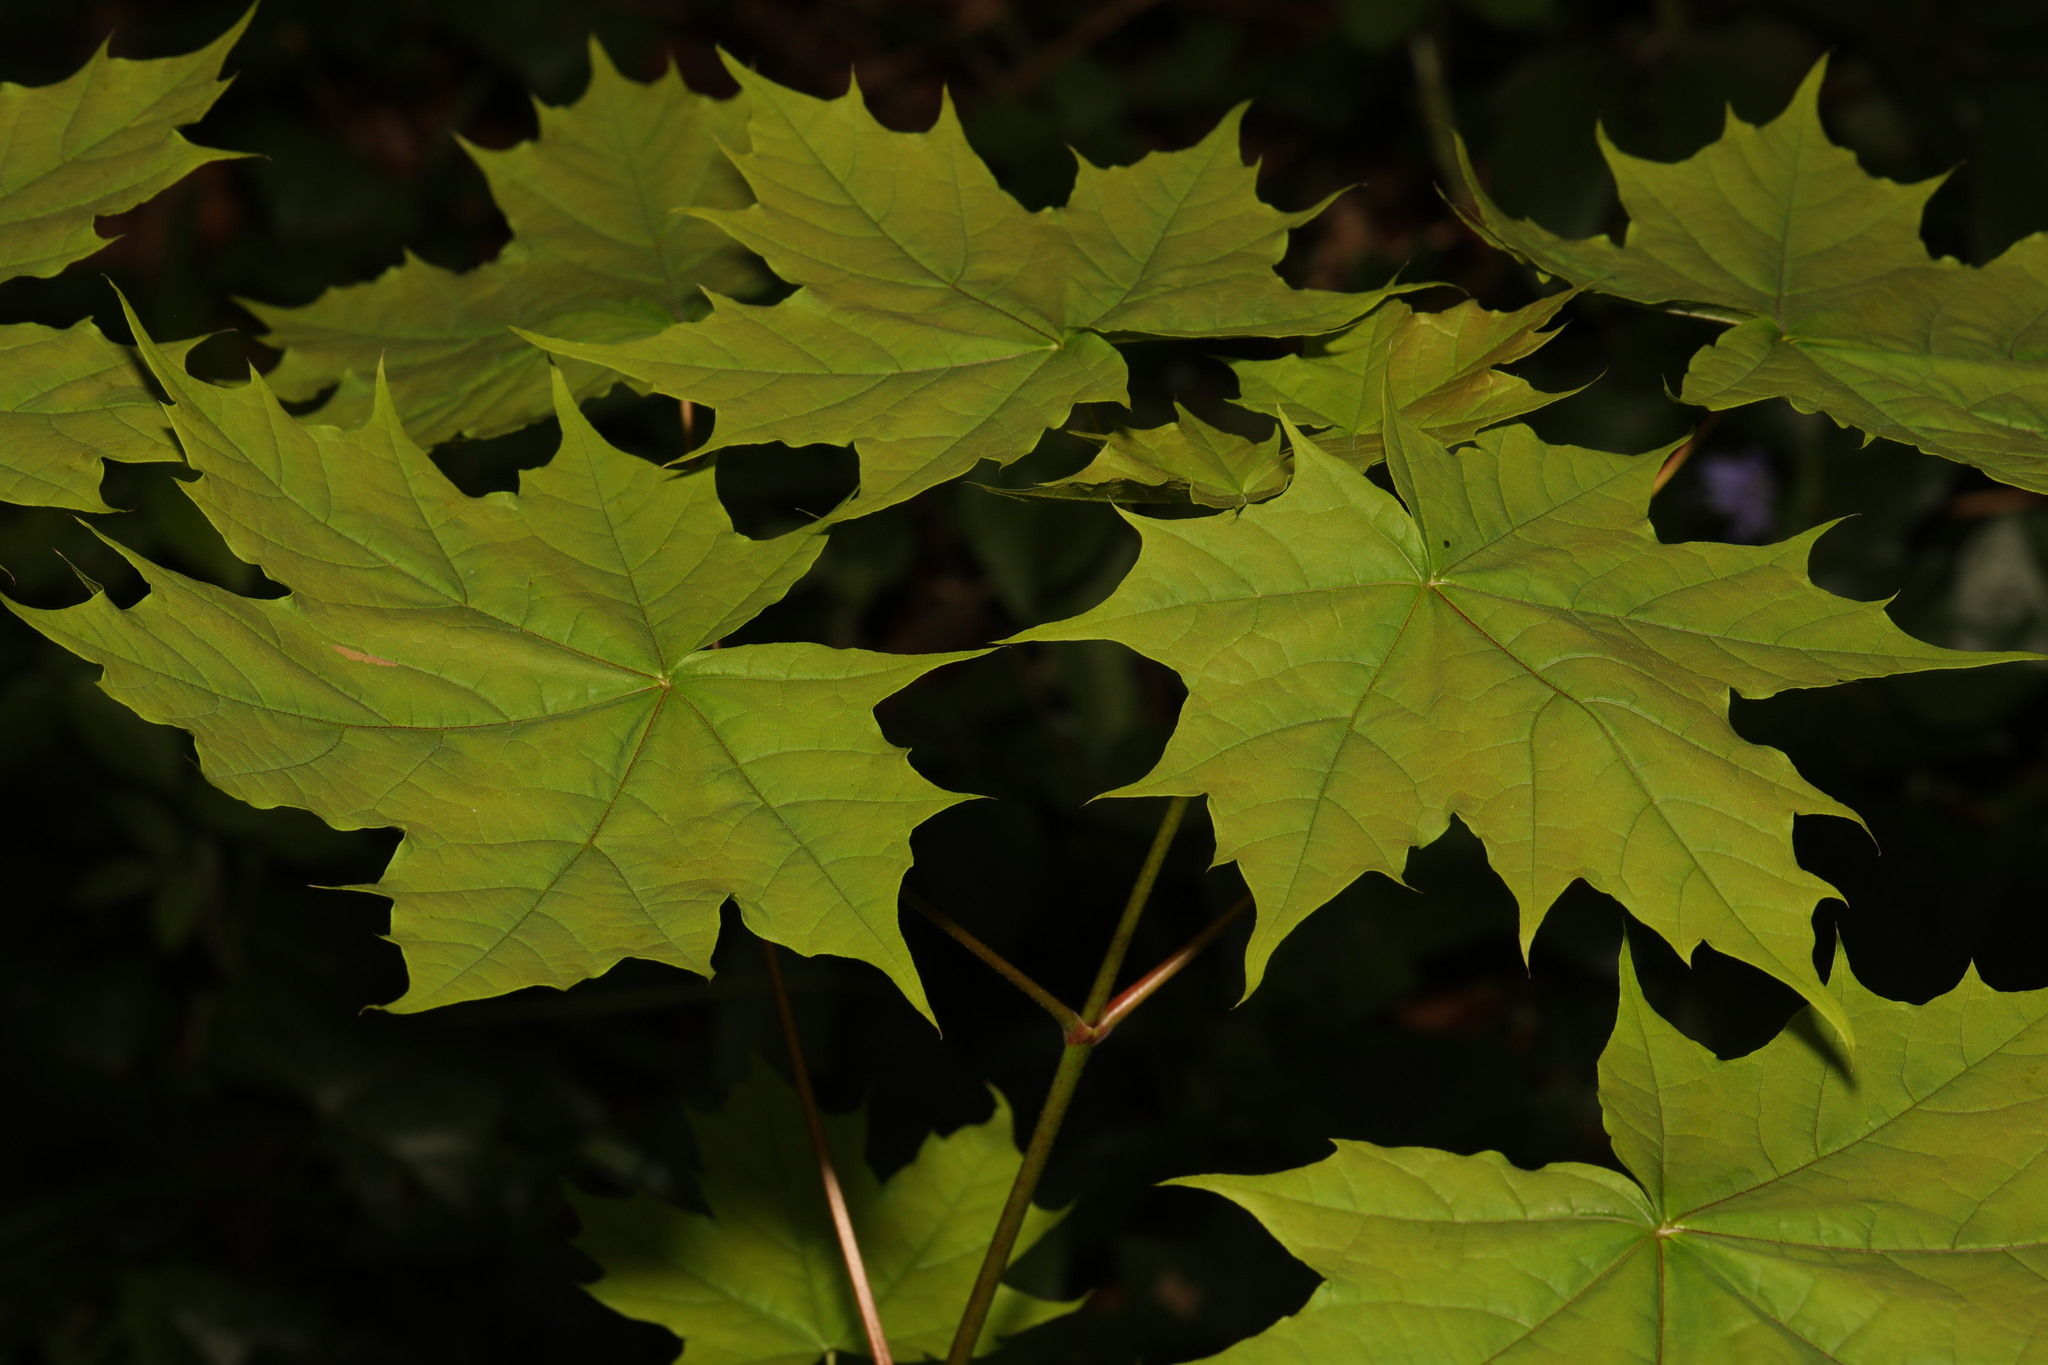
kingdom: Plantae
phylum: Tracheophyta
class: Magnoliopsida
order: Sapindales
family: Sapindaceae
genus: Acer
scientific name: Acer platanoides
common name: Norway maple
